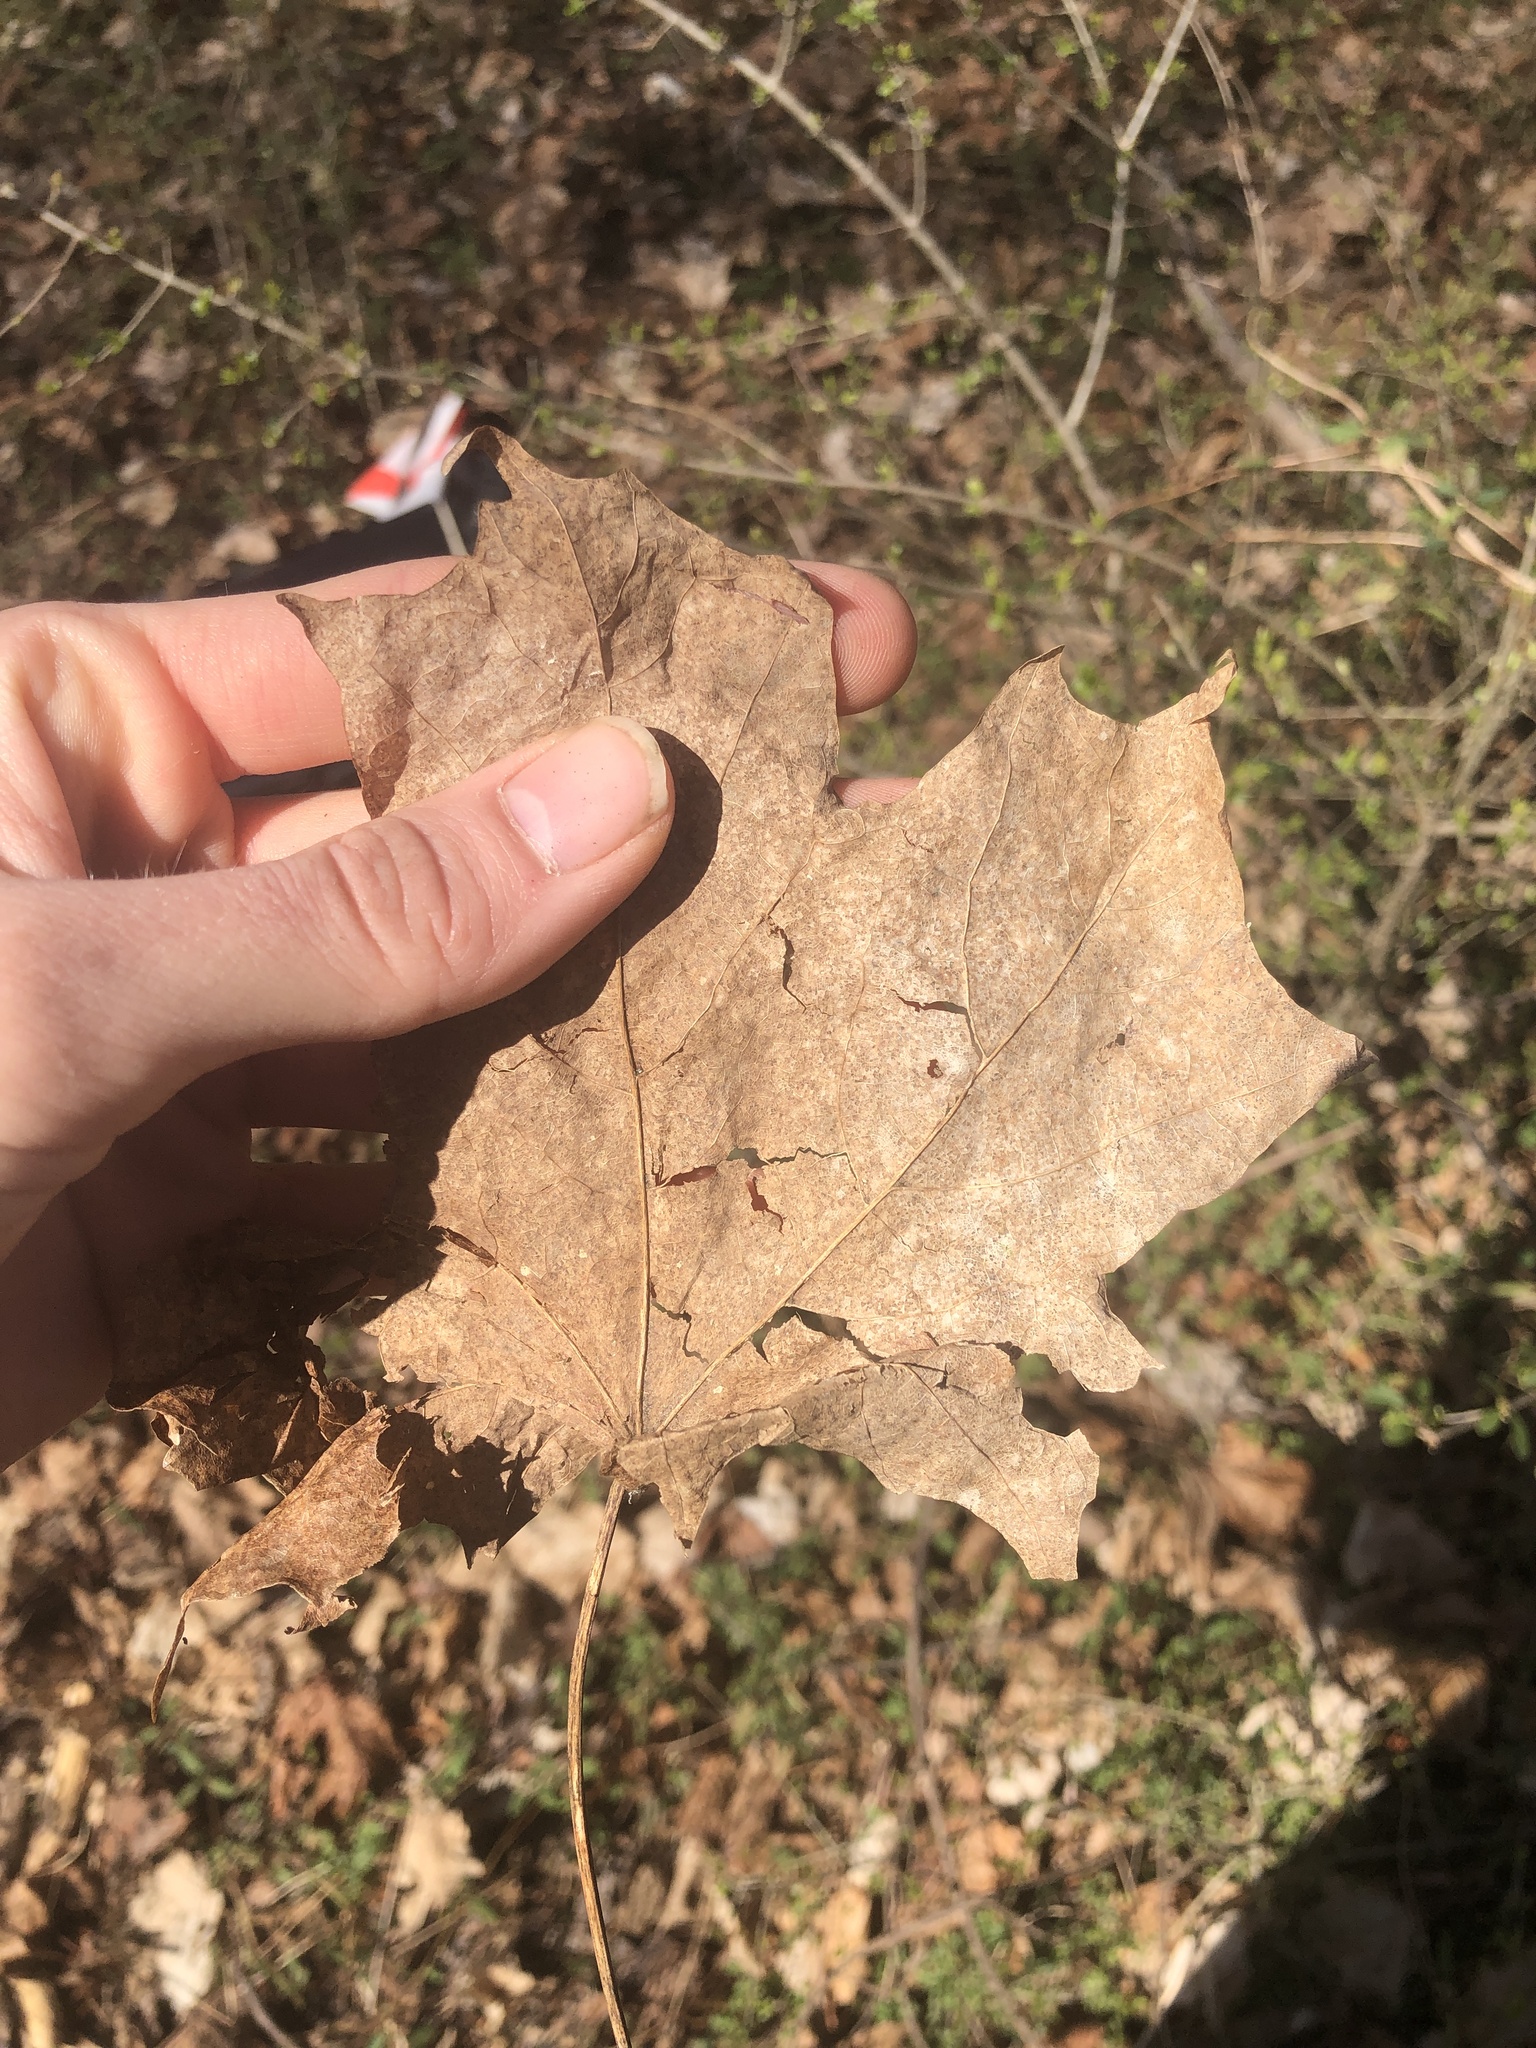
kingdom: Plantae
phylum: Tracheophyta
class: Magnoliopsida
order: Sapindales
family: Sapindaceae
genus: Acer
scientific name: Acer saccharum
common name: Sugar maple
